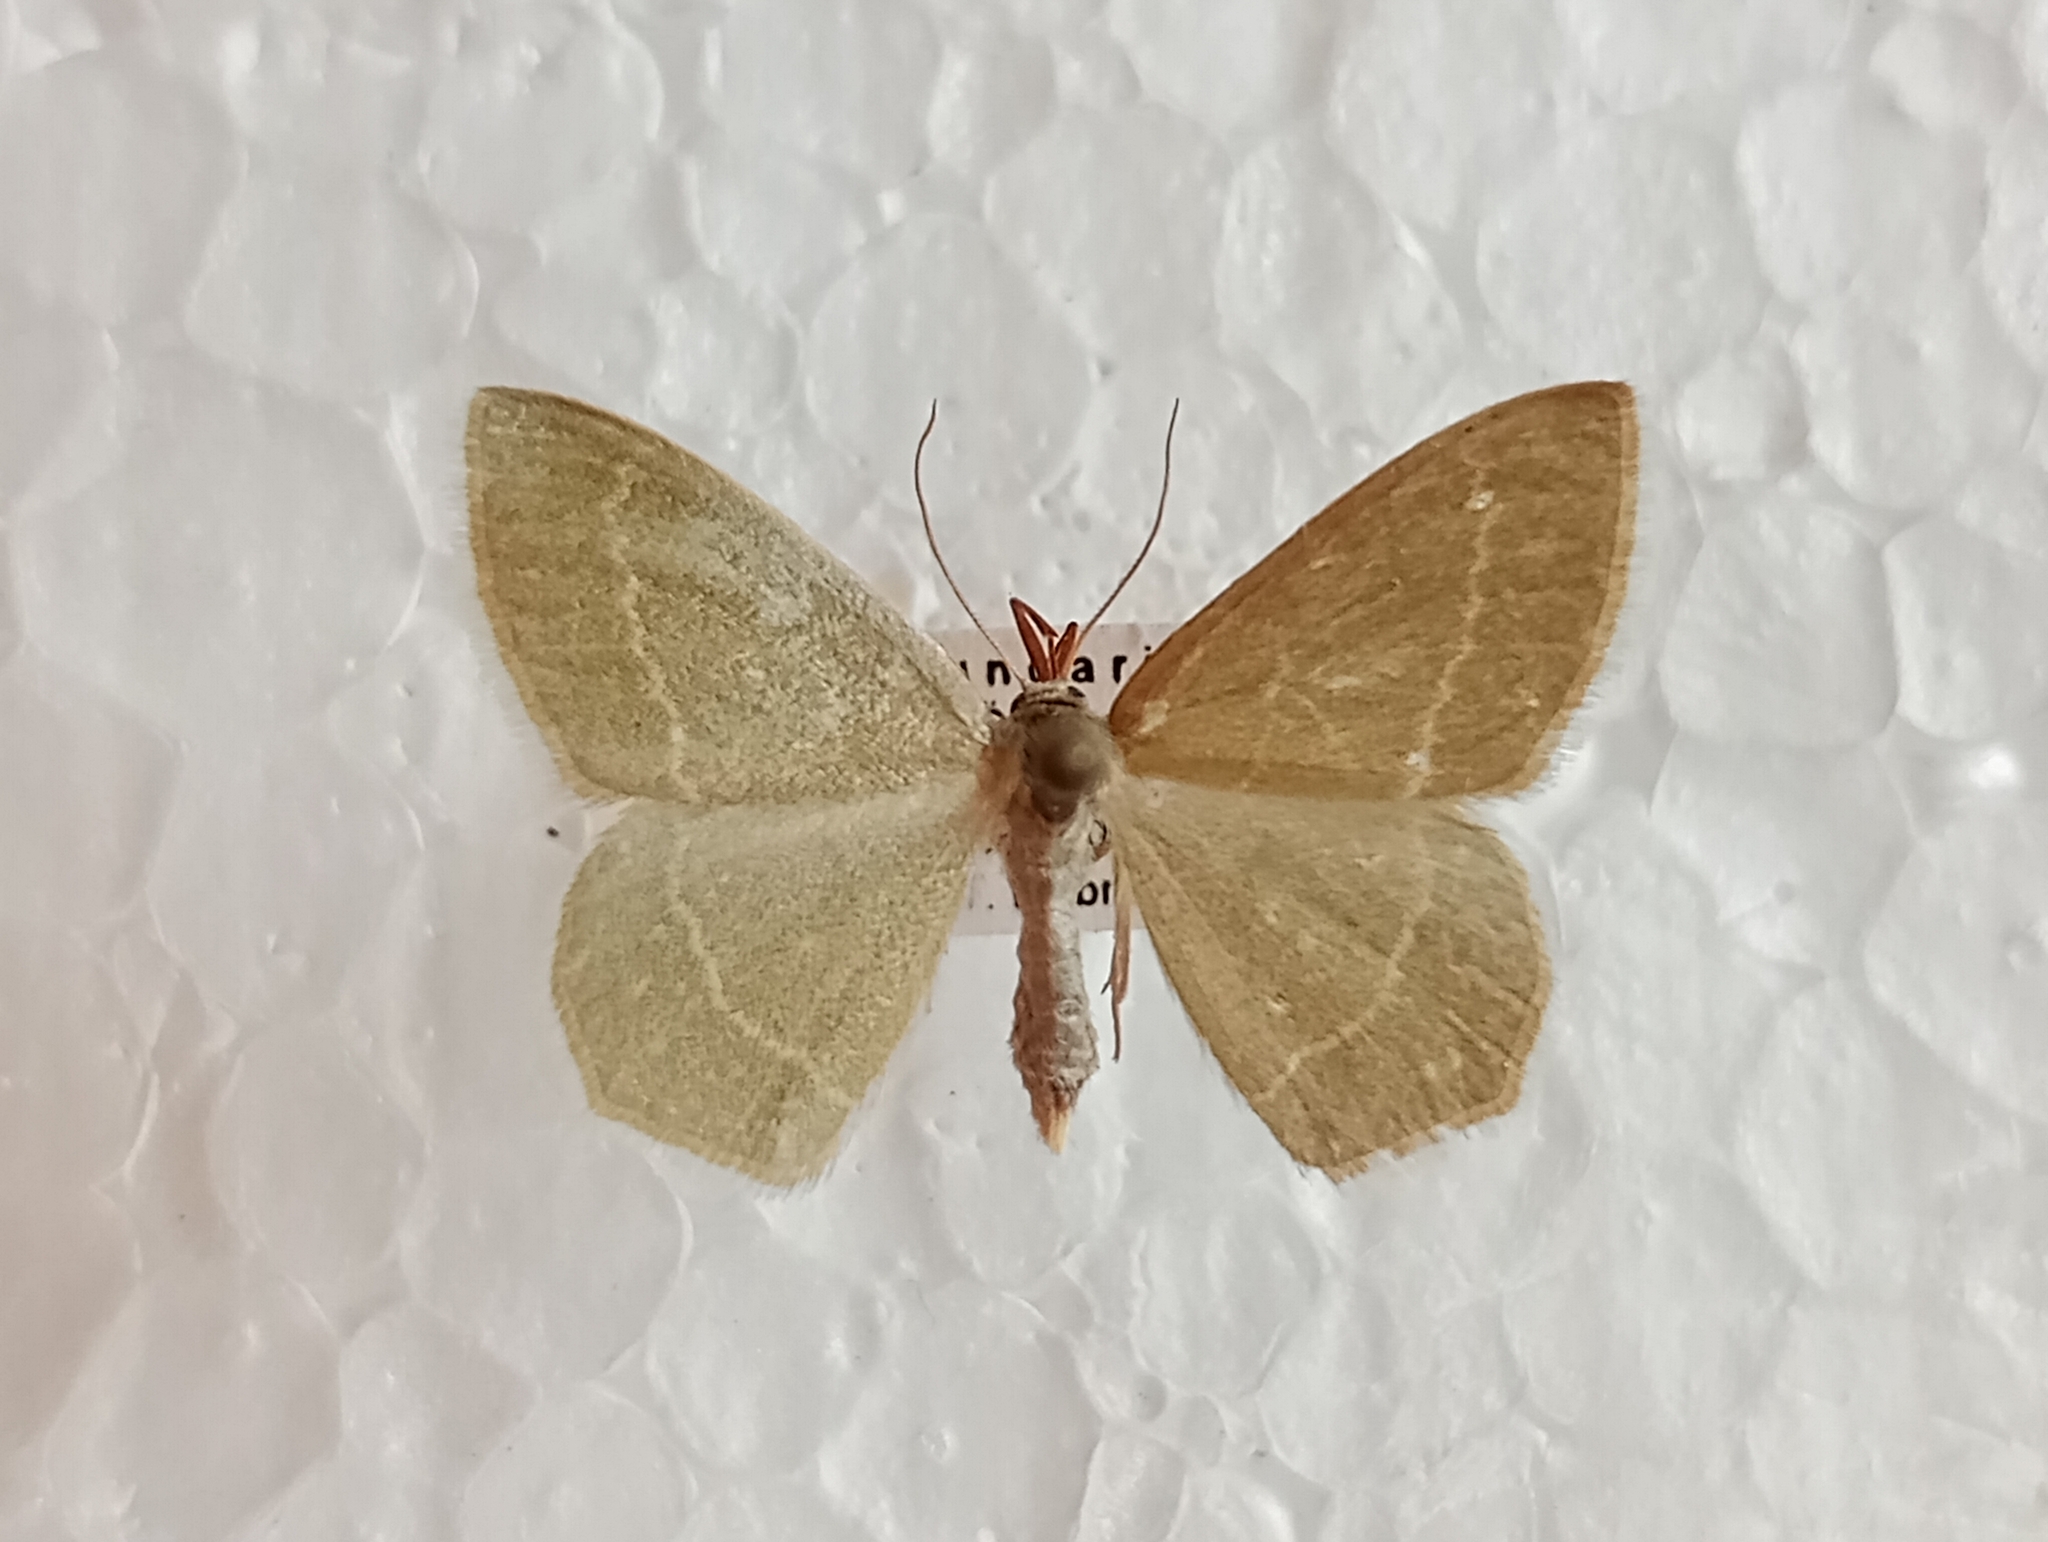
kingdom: Animalia
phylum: Arthropoda
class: Insecta
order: Lepidoptera
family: Geometridae
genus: Chlorissa
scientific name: Chlorissa cloraria
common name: Southern grass emerald
